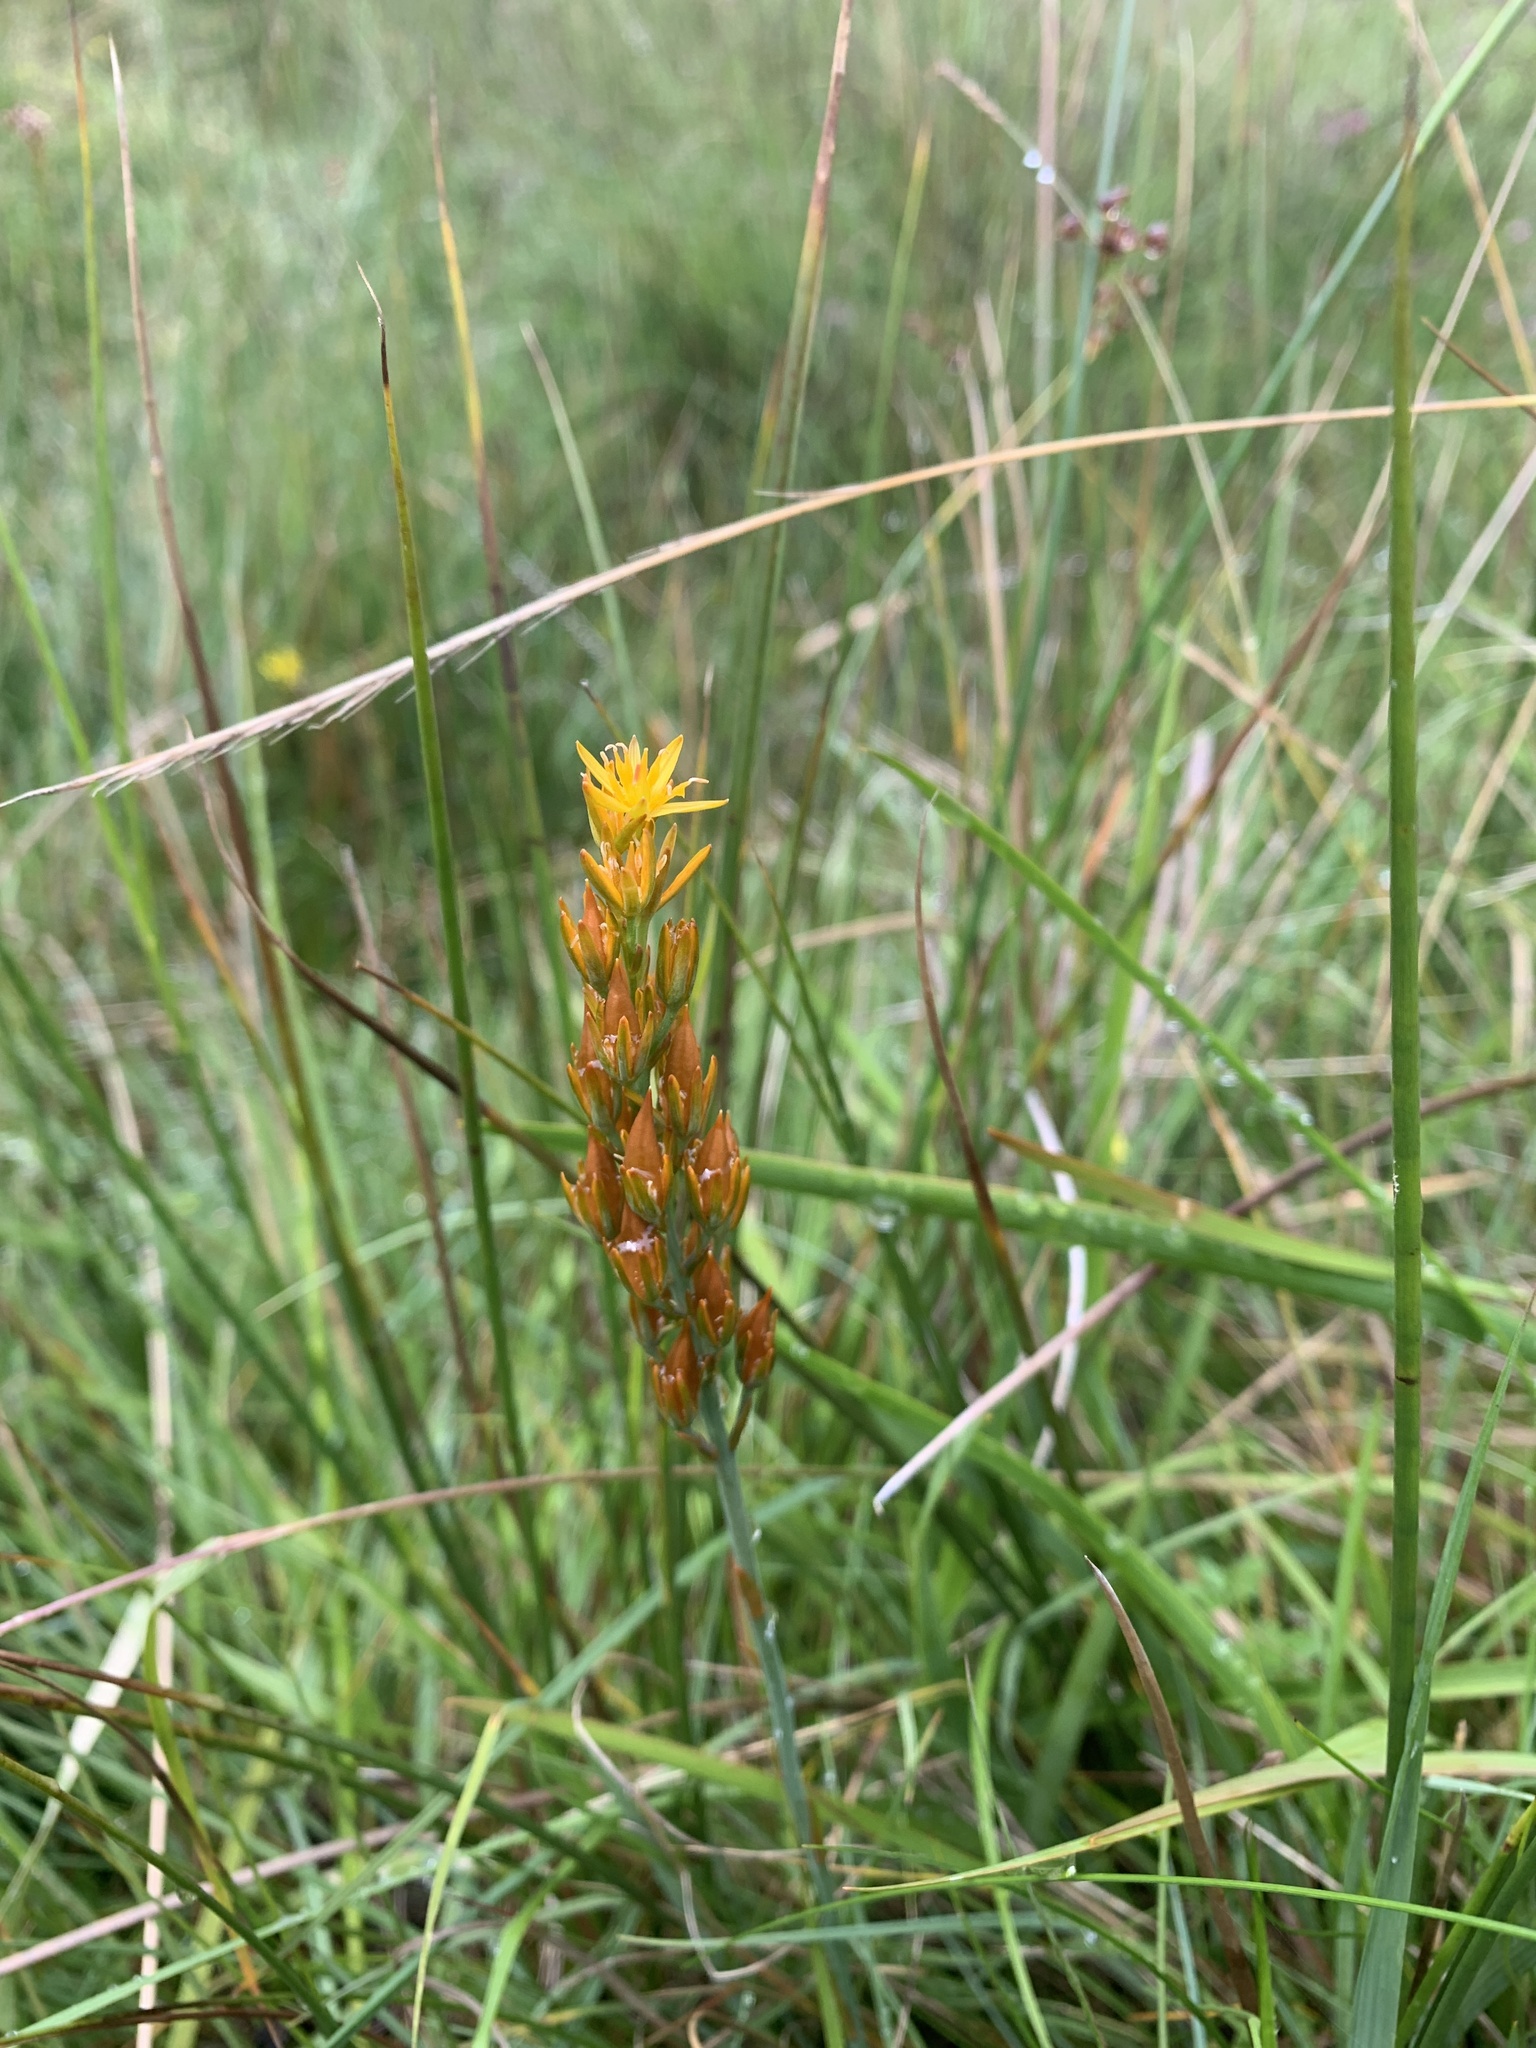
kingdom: Plantae
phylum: Tracheophyta
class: Liliopsida
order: Dioscoreales
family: Nartheciaceae
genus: Narthecium
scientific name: Narthecium ossifragum
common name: Bog asphodel
